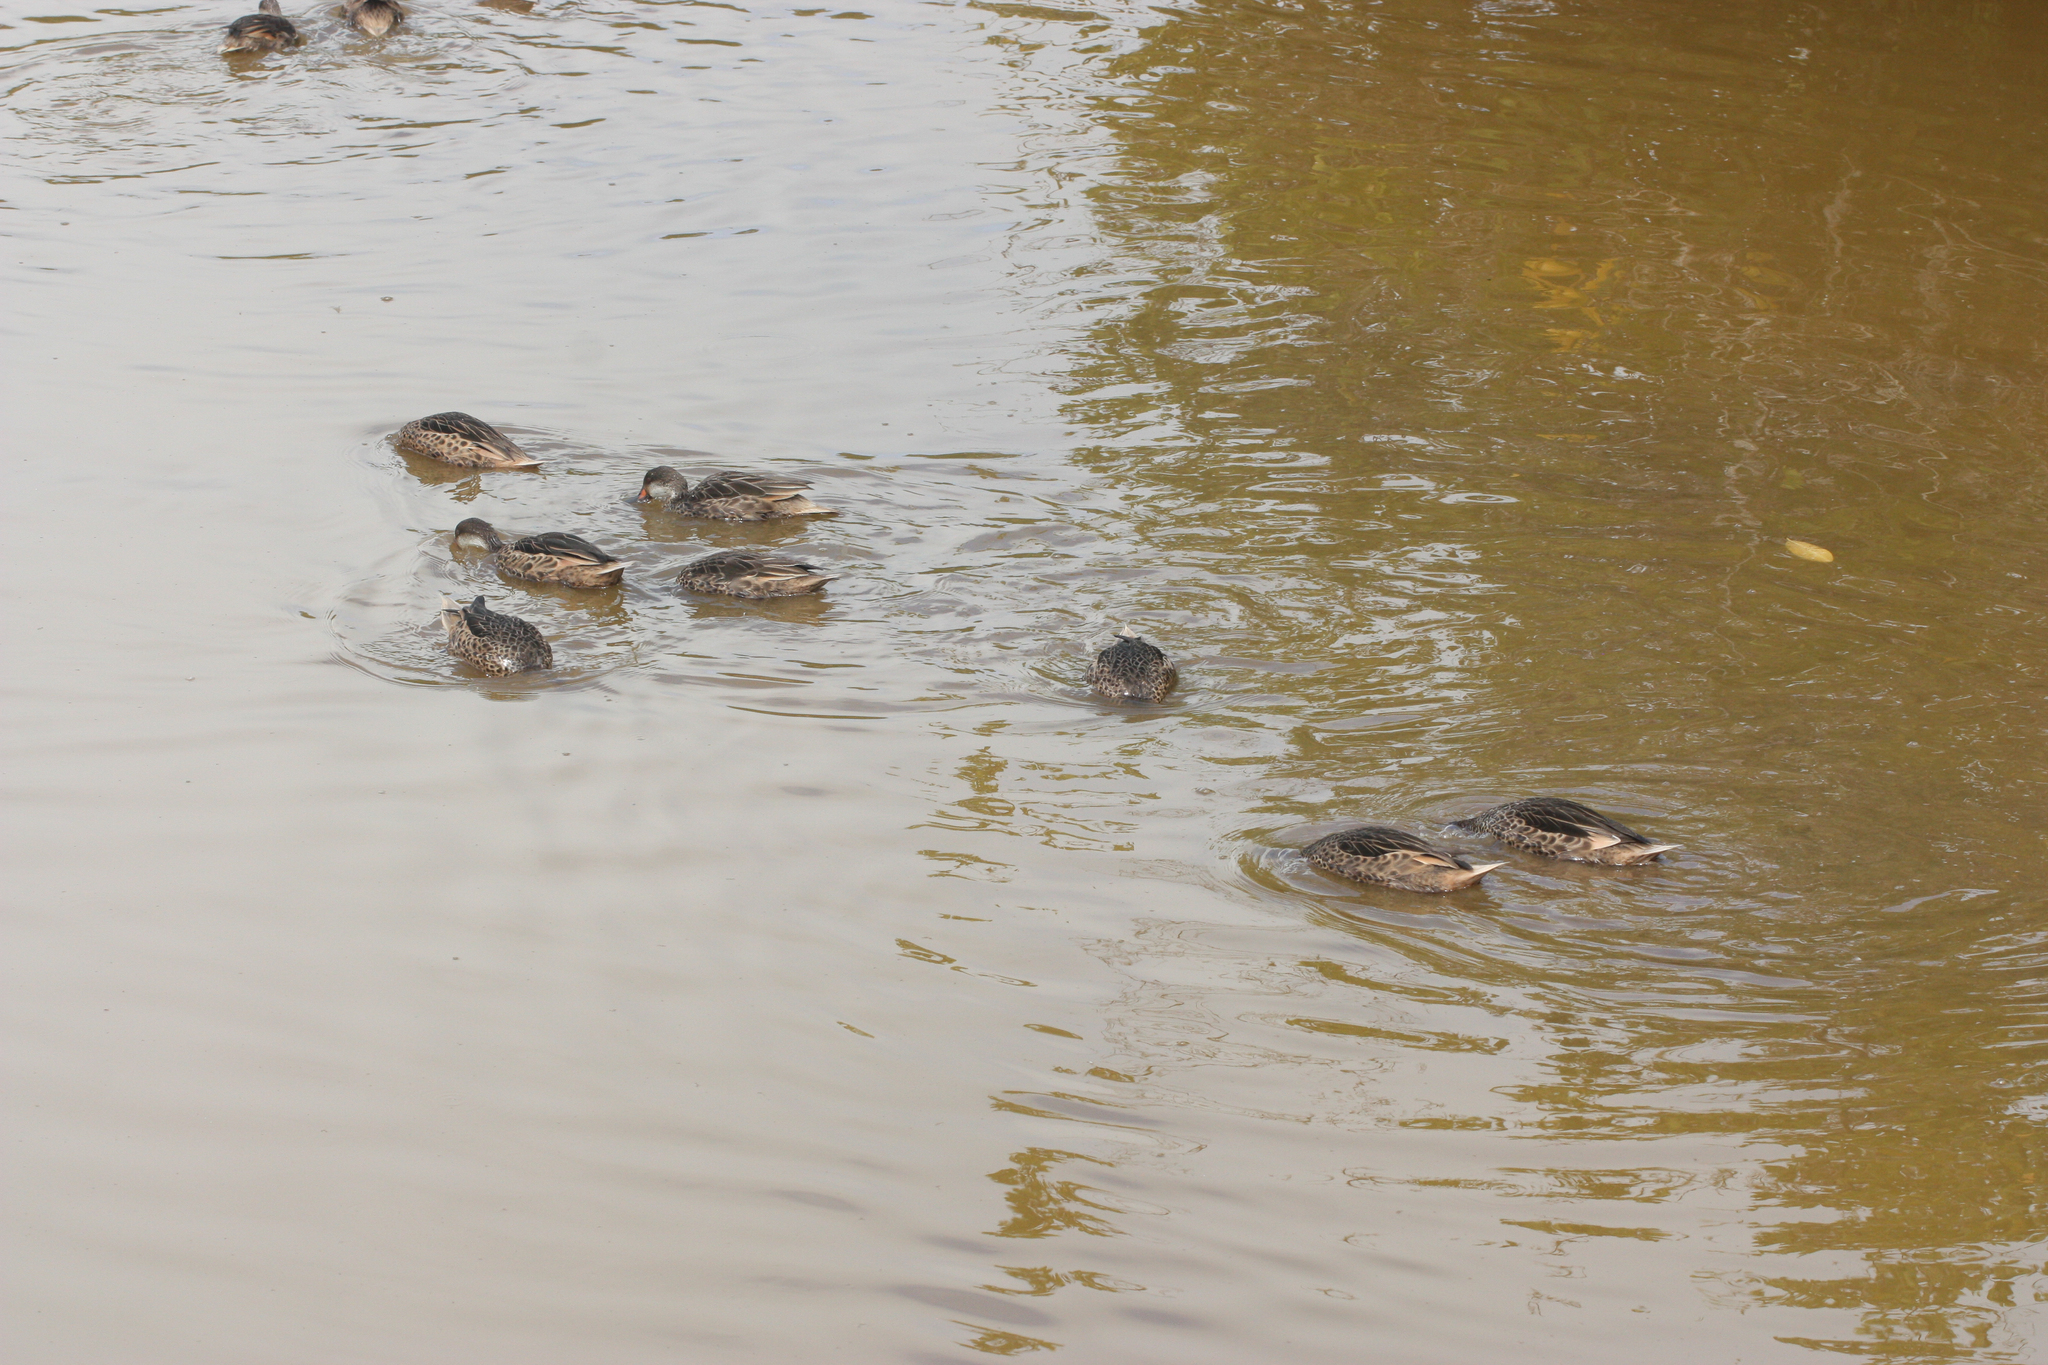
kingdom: Animalia
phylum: Chordata
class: Aves
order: Anseriformes
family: Anatidae
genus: Anas
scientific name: Anas bahamensis
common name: White-cheeked pintail
